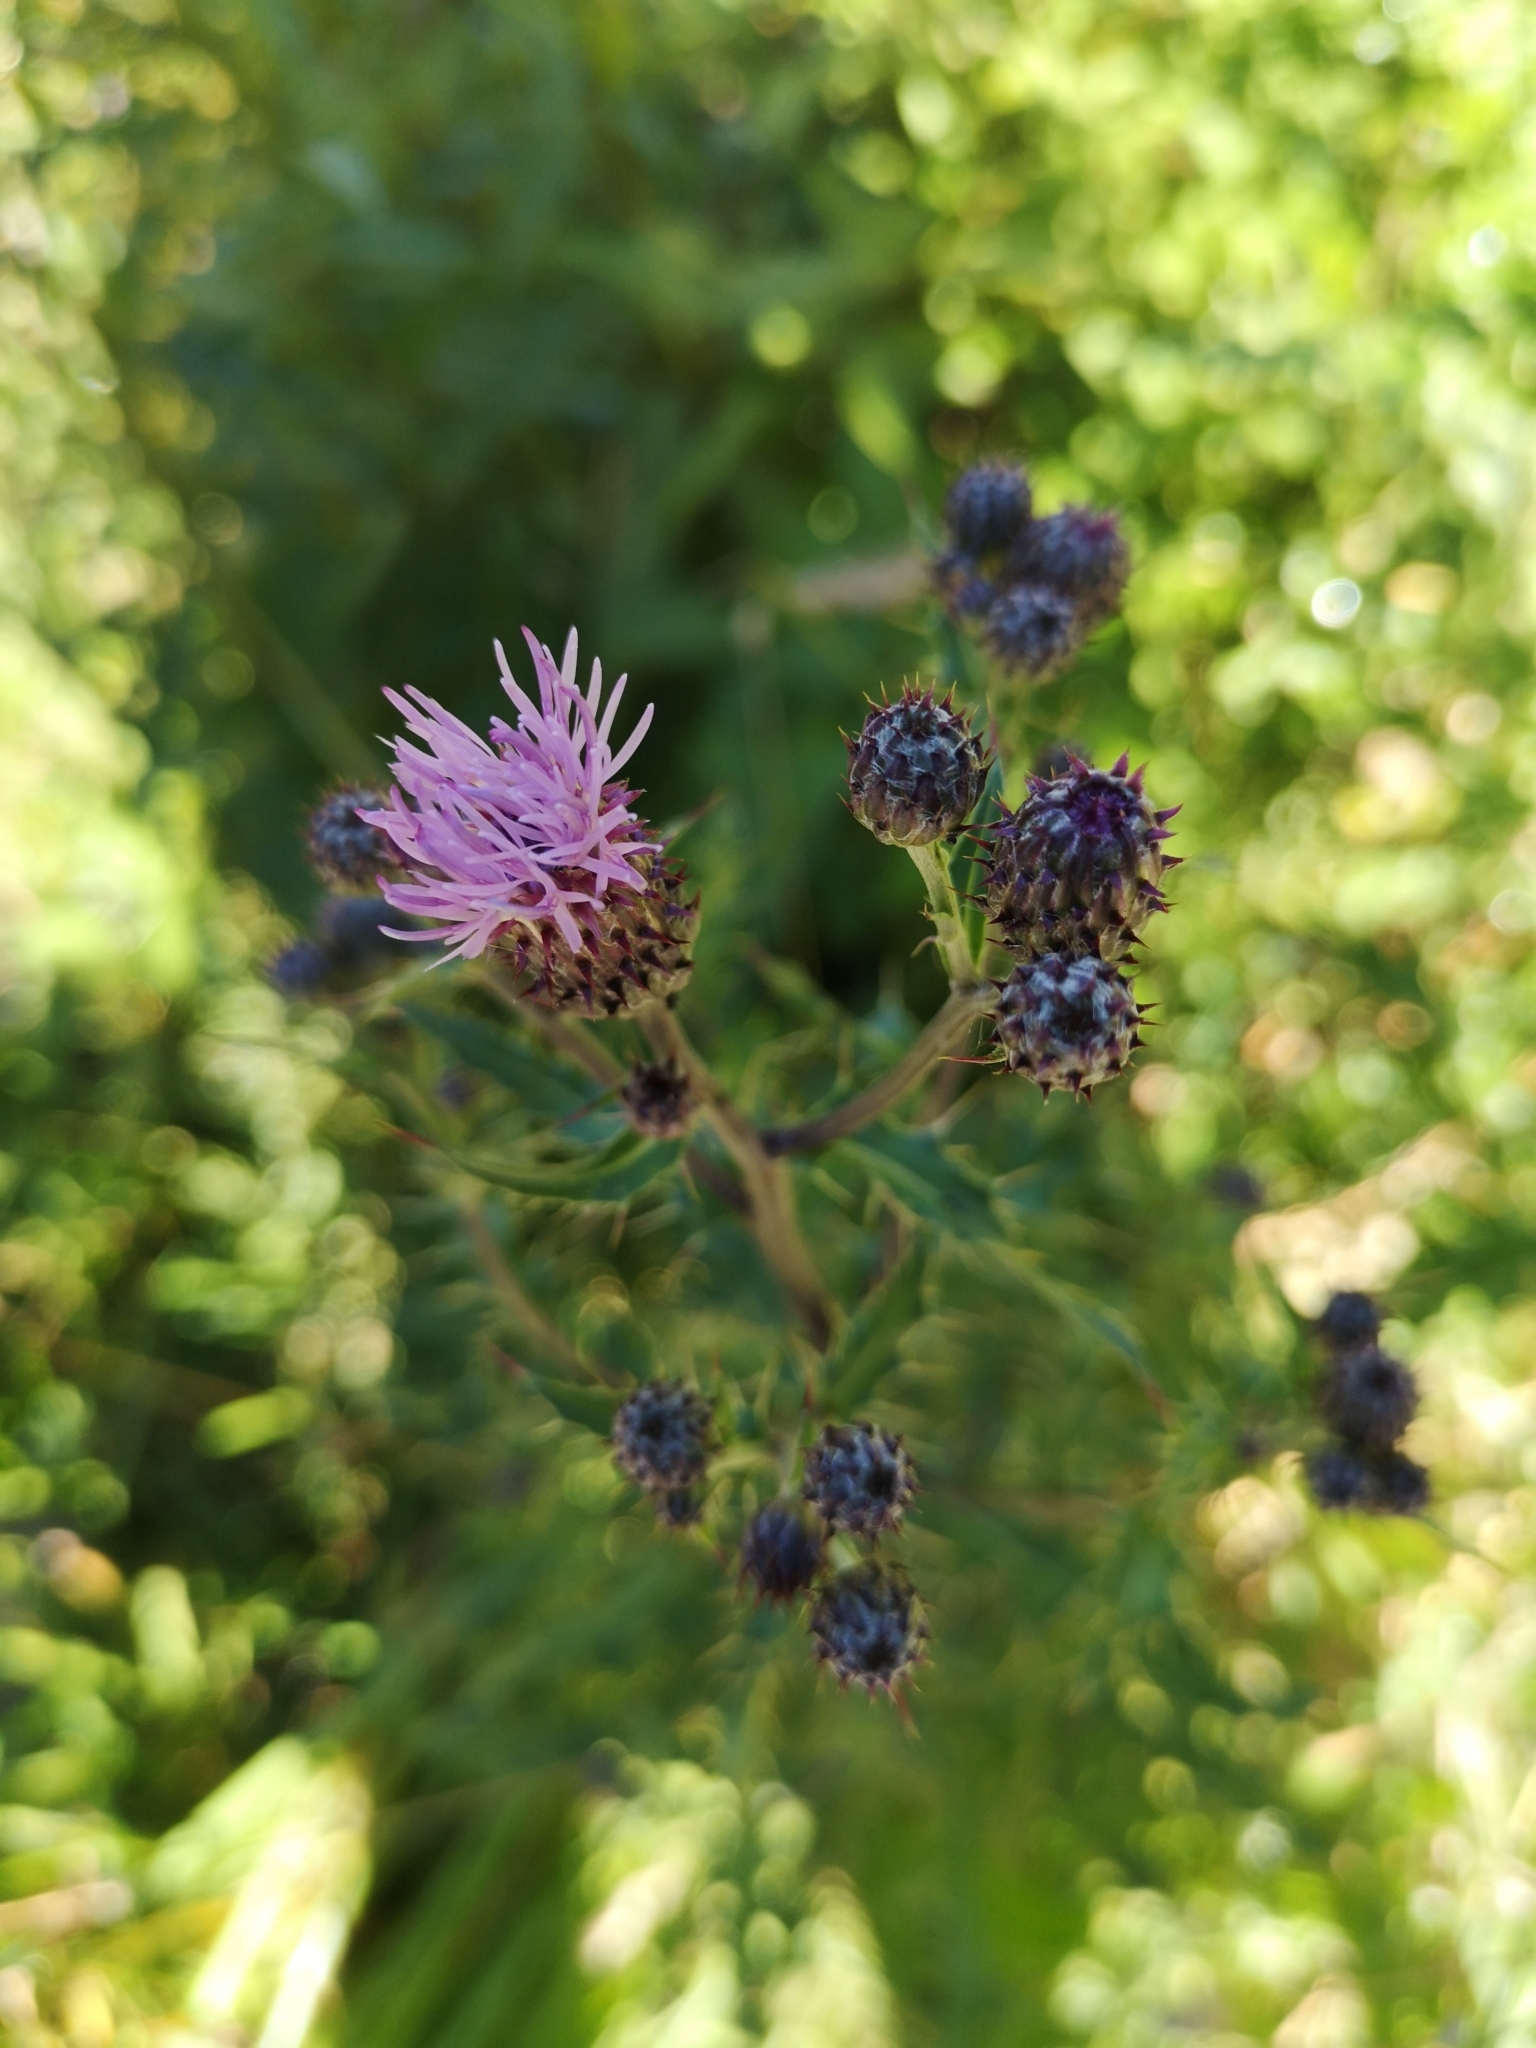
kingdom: Plantae
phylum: Tracheophyta
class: Magnoliopsida
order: Asterales
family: Asteraceae
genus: Cirsium
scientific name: Cirsium arvense
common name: Creeping thistle
